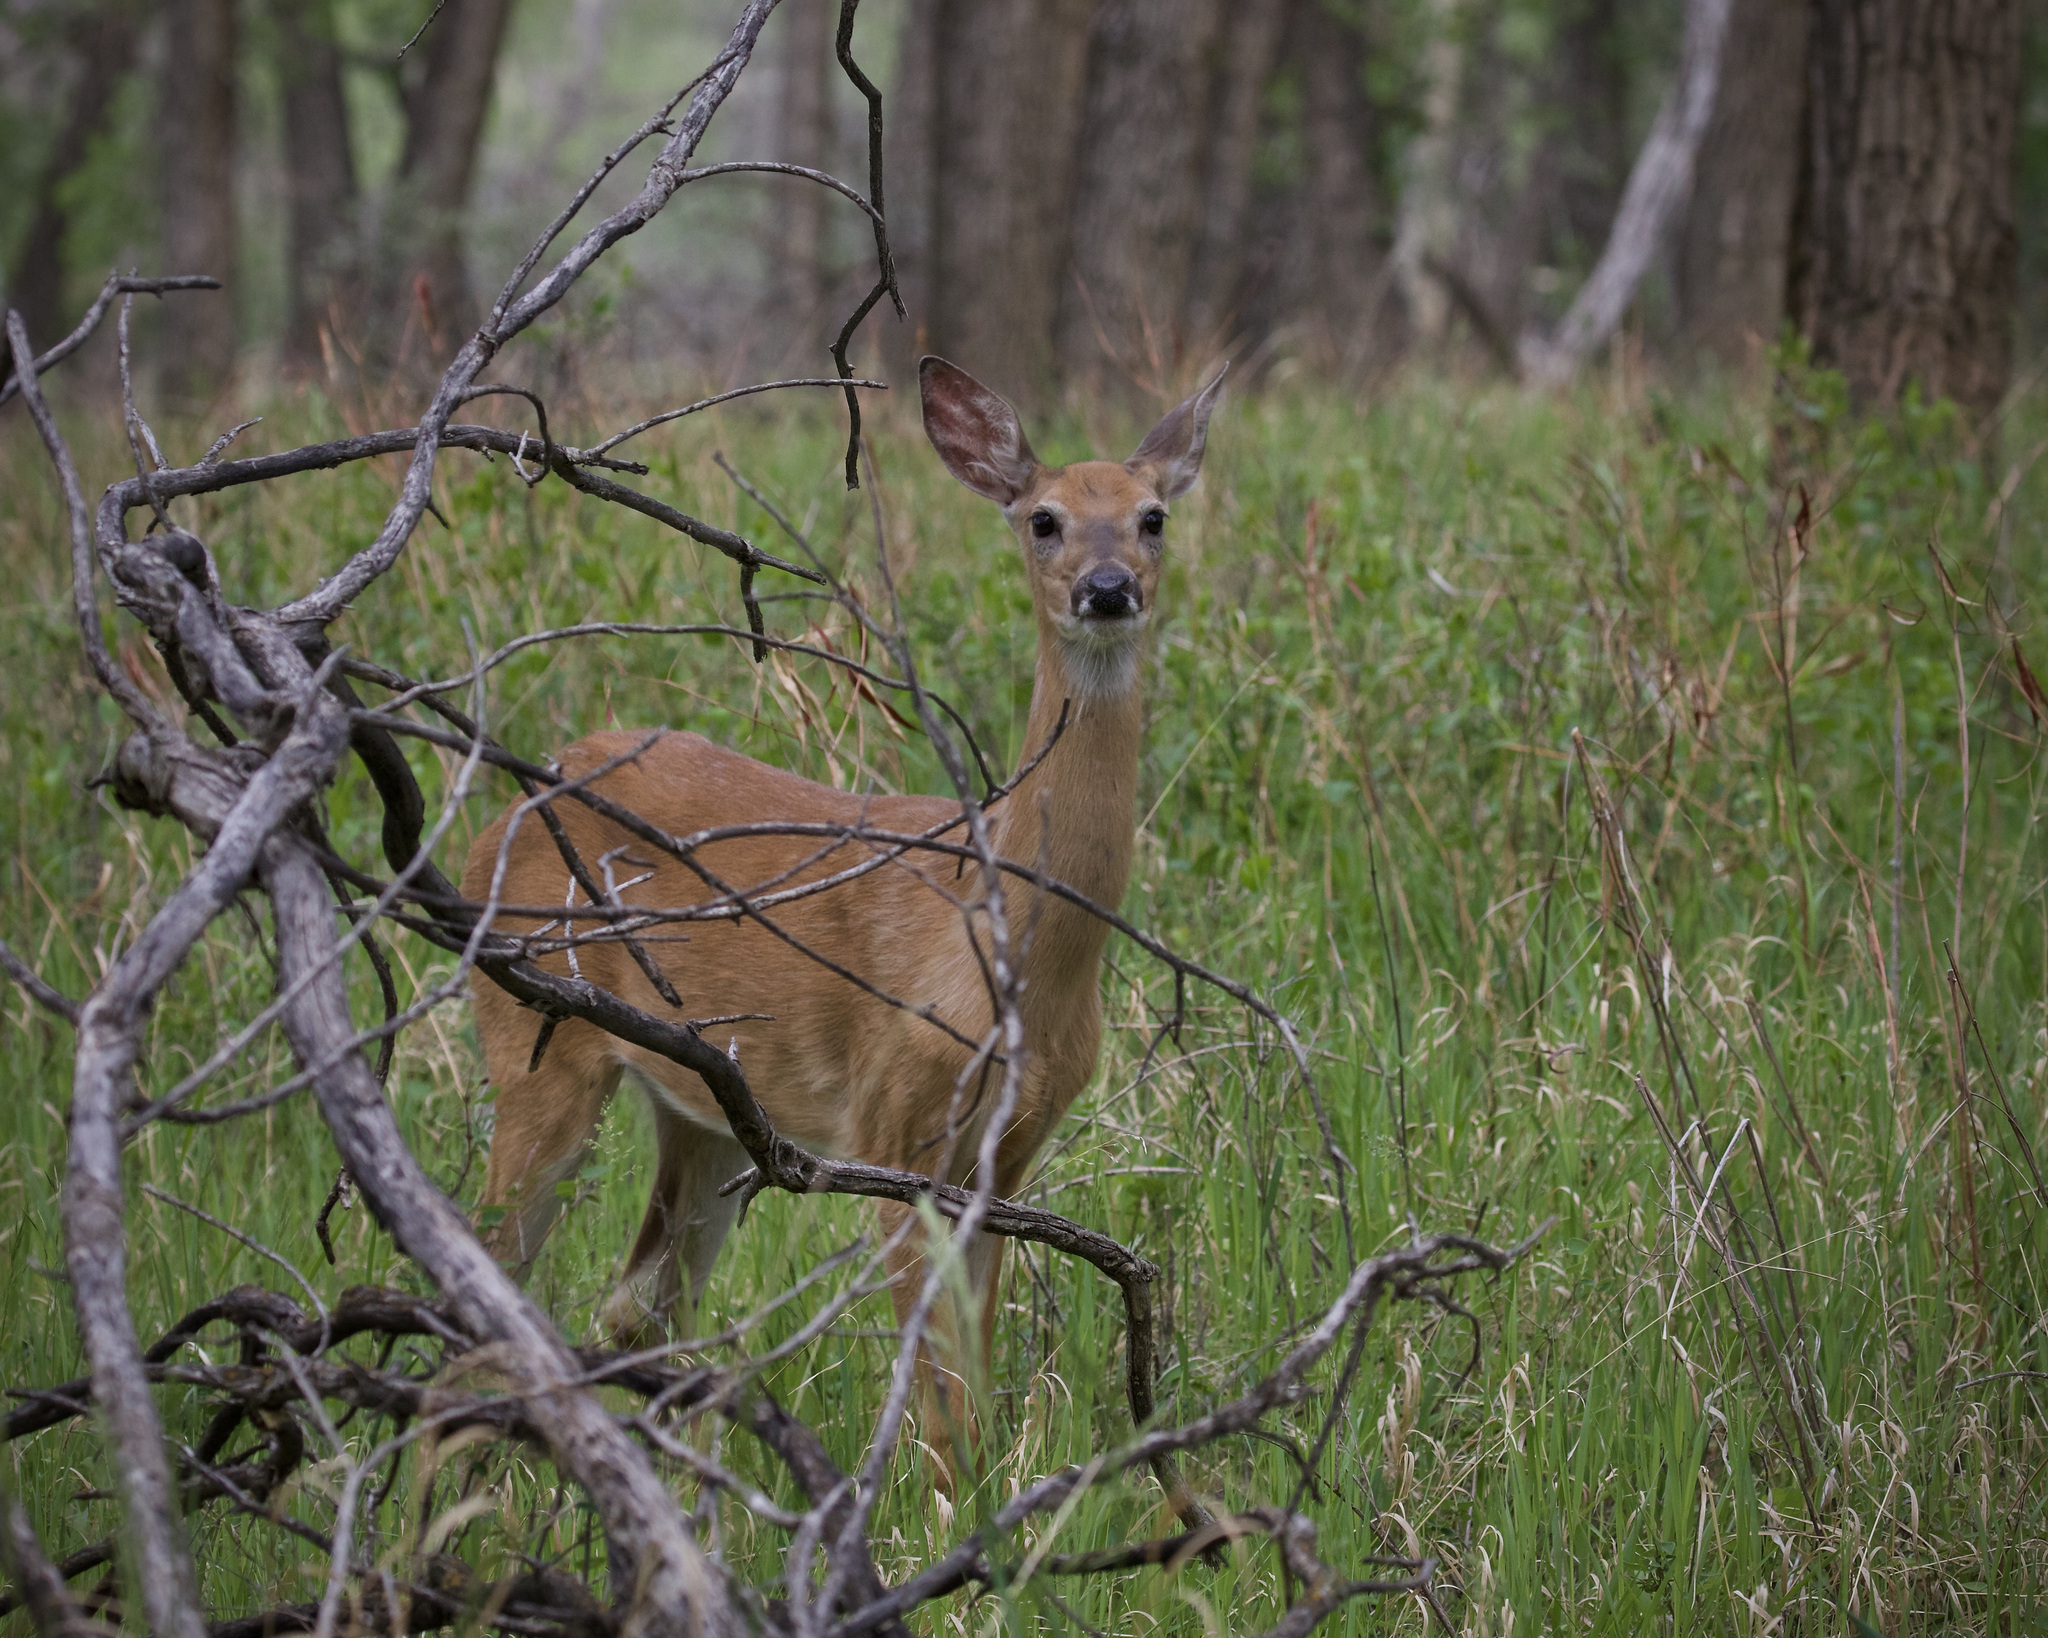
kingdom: Animalia
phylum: Chordata
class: Mammalia
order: Artiodactyla
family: Cervidae
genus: Odocoileus
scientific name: Odocoileus virginianus
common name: White-tailed deer
